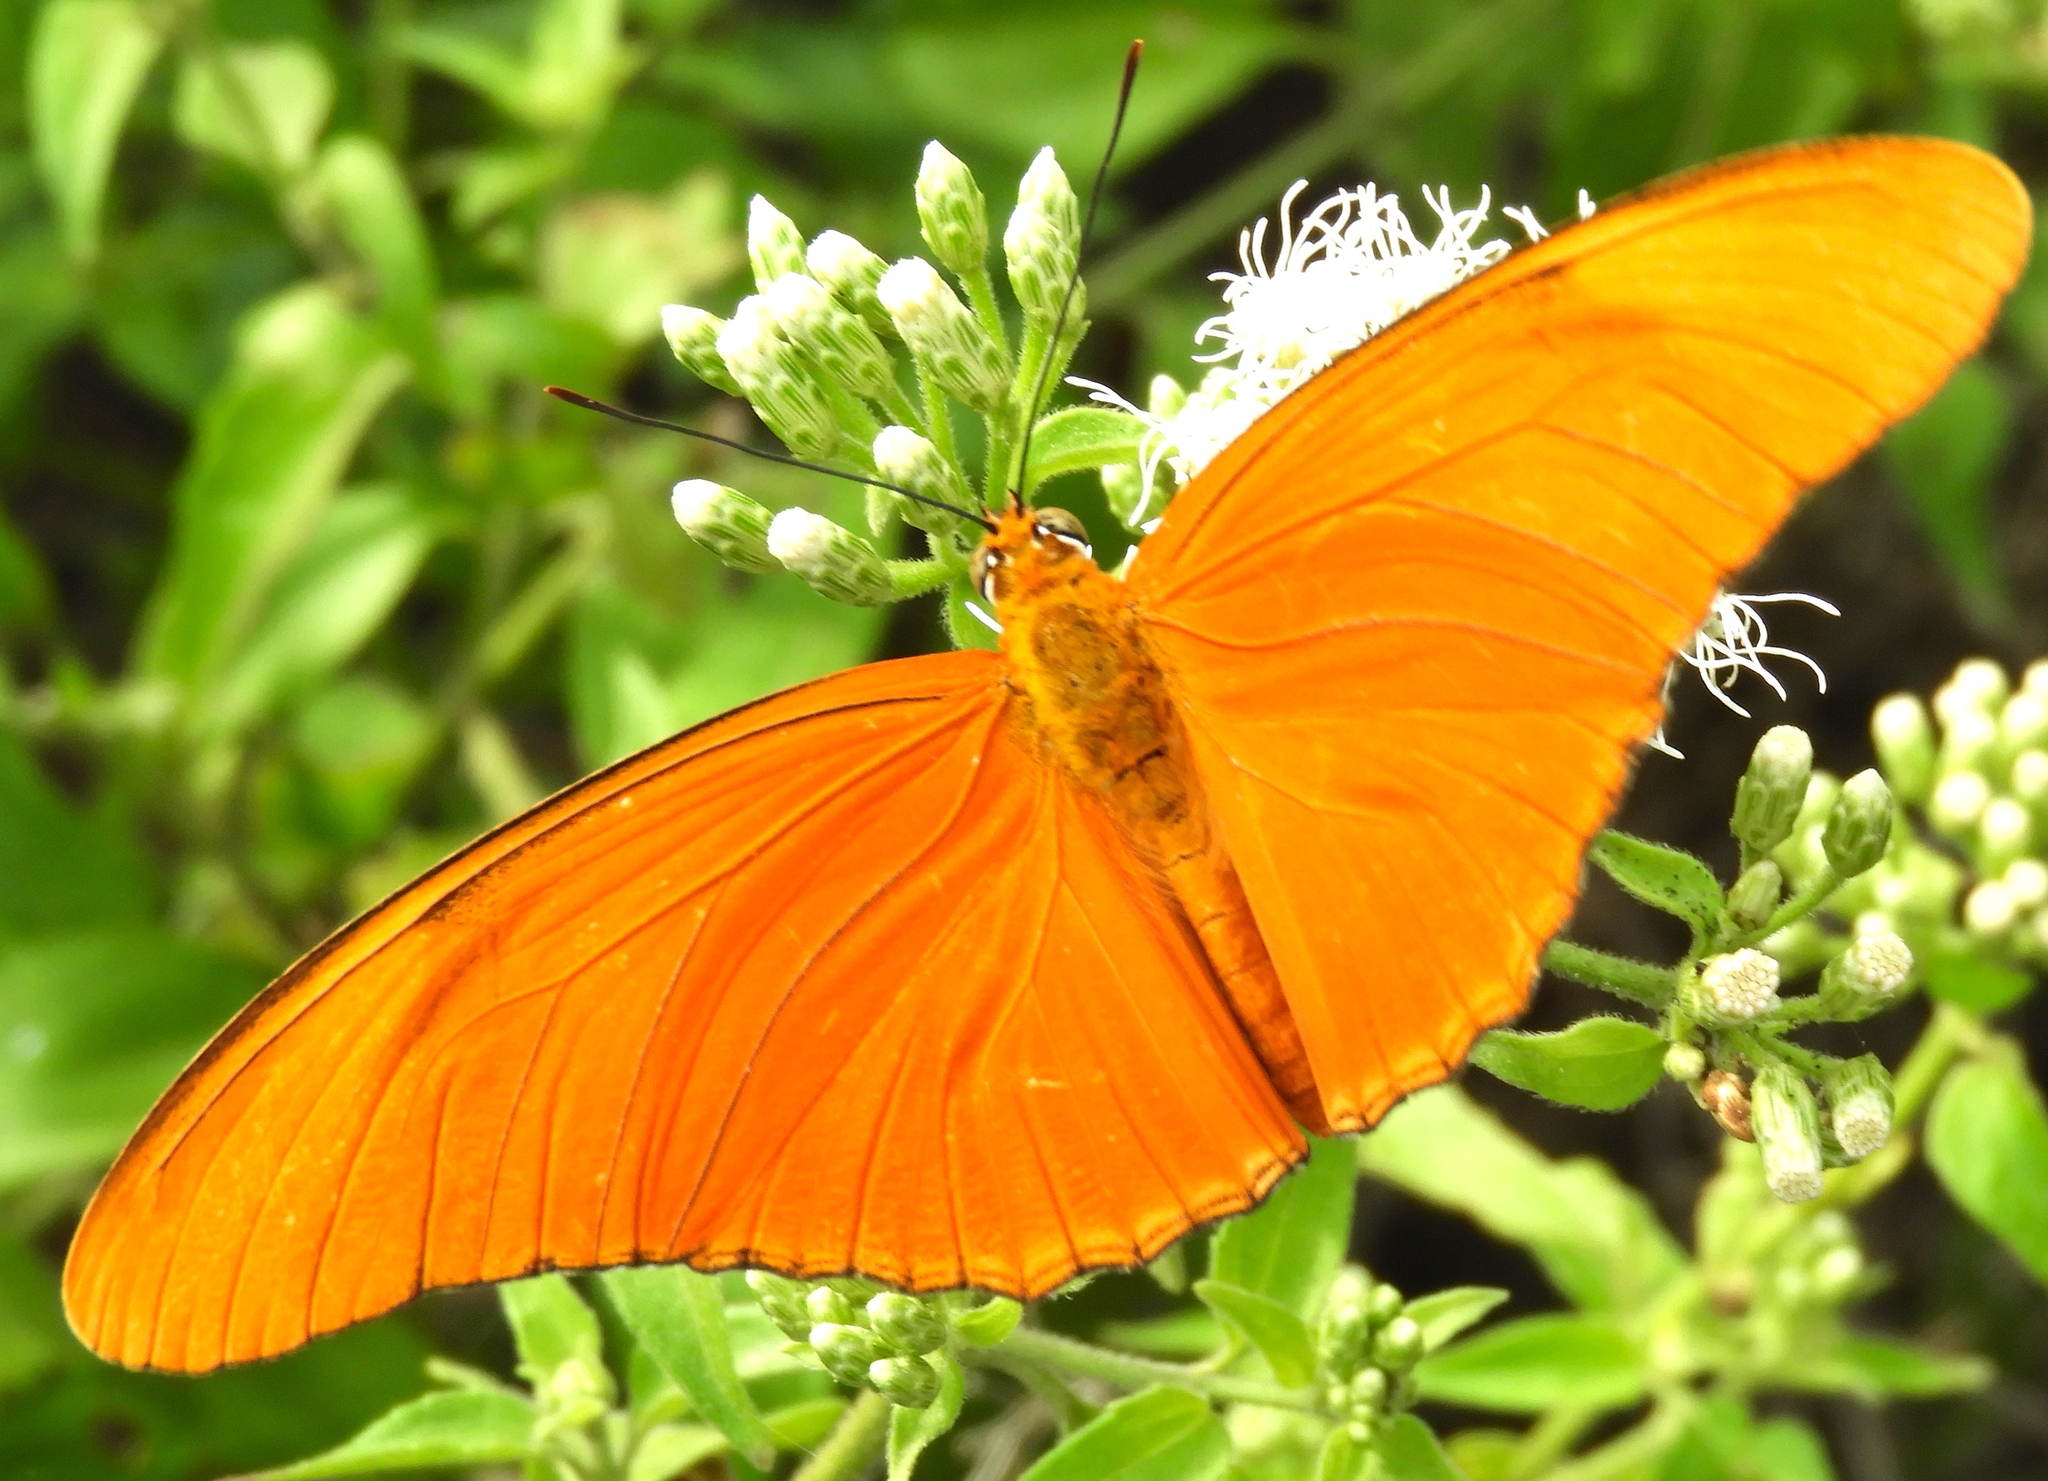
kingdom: Animalia
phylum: Arthropoda
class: Insecta
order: Lepidoptera
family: Nymphalidae
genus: Dryas
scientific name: Dryas iulia
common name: Flambeau
